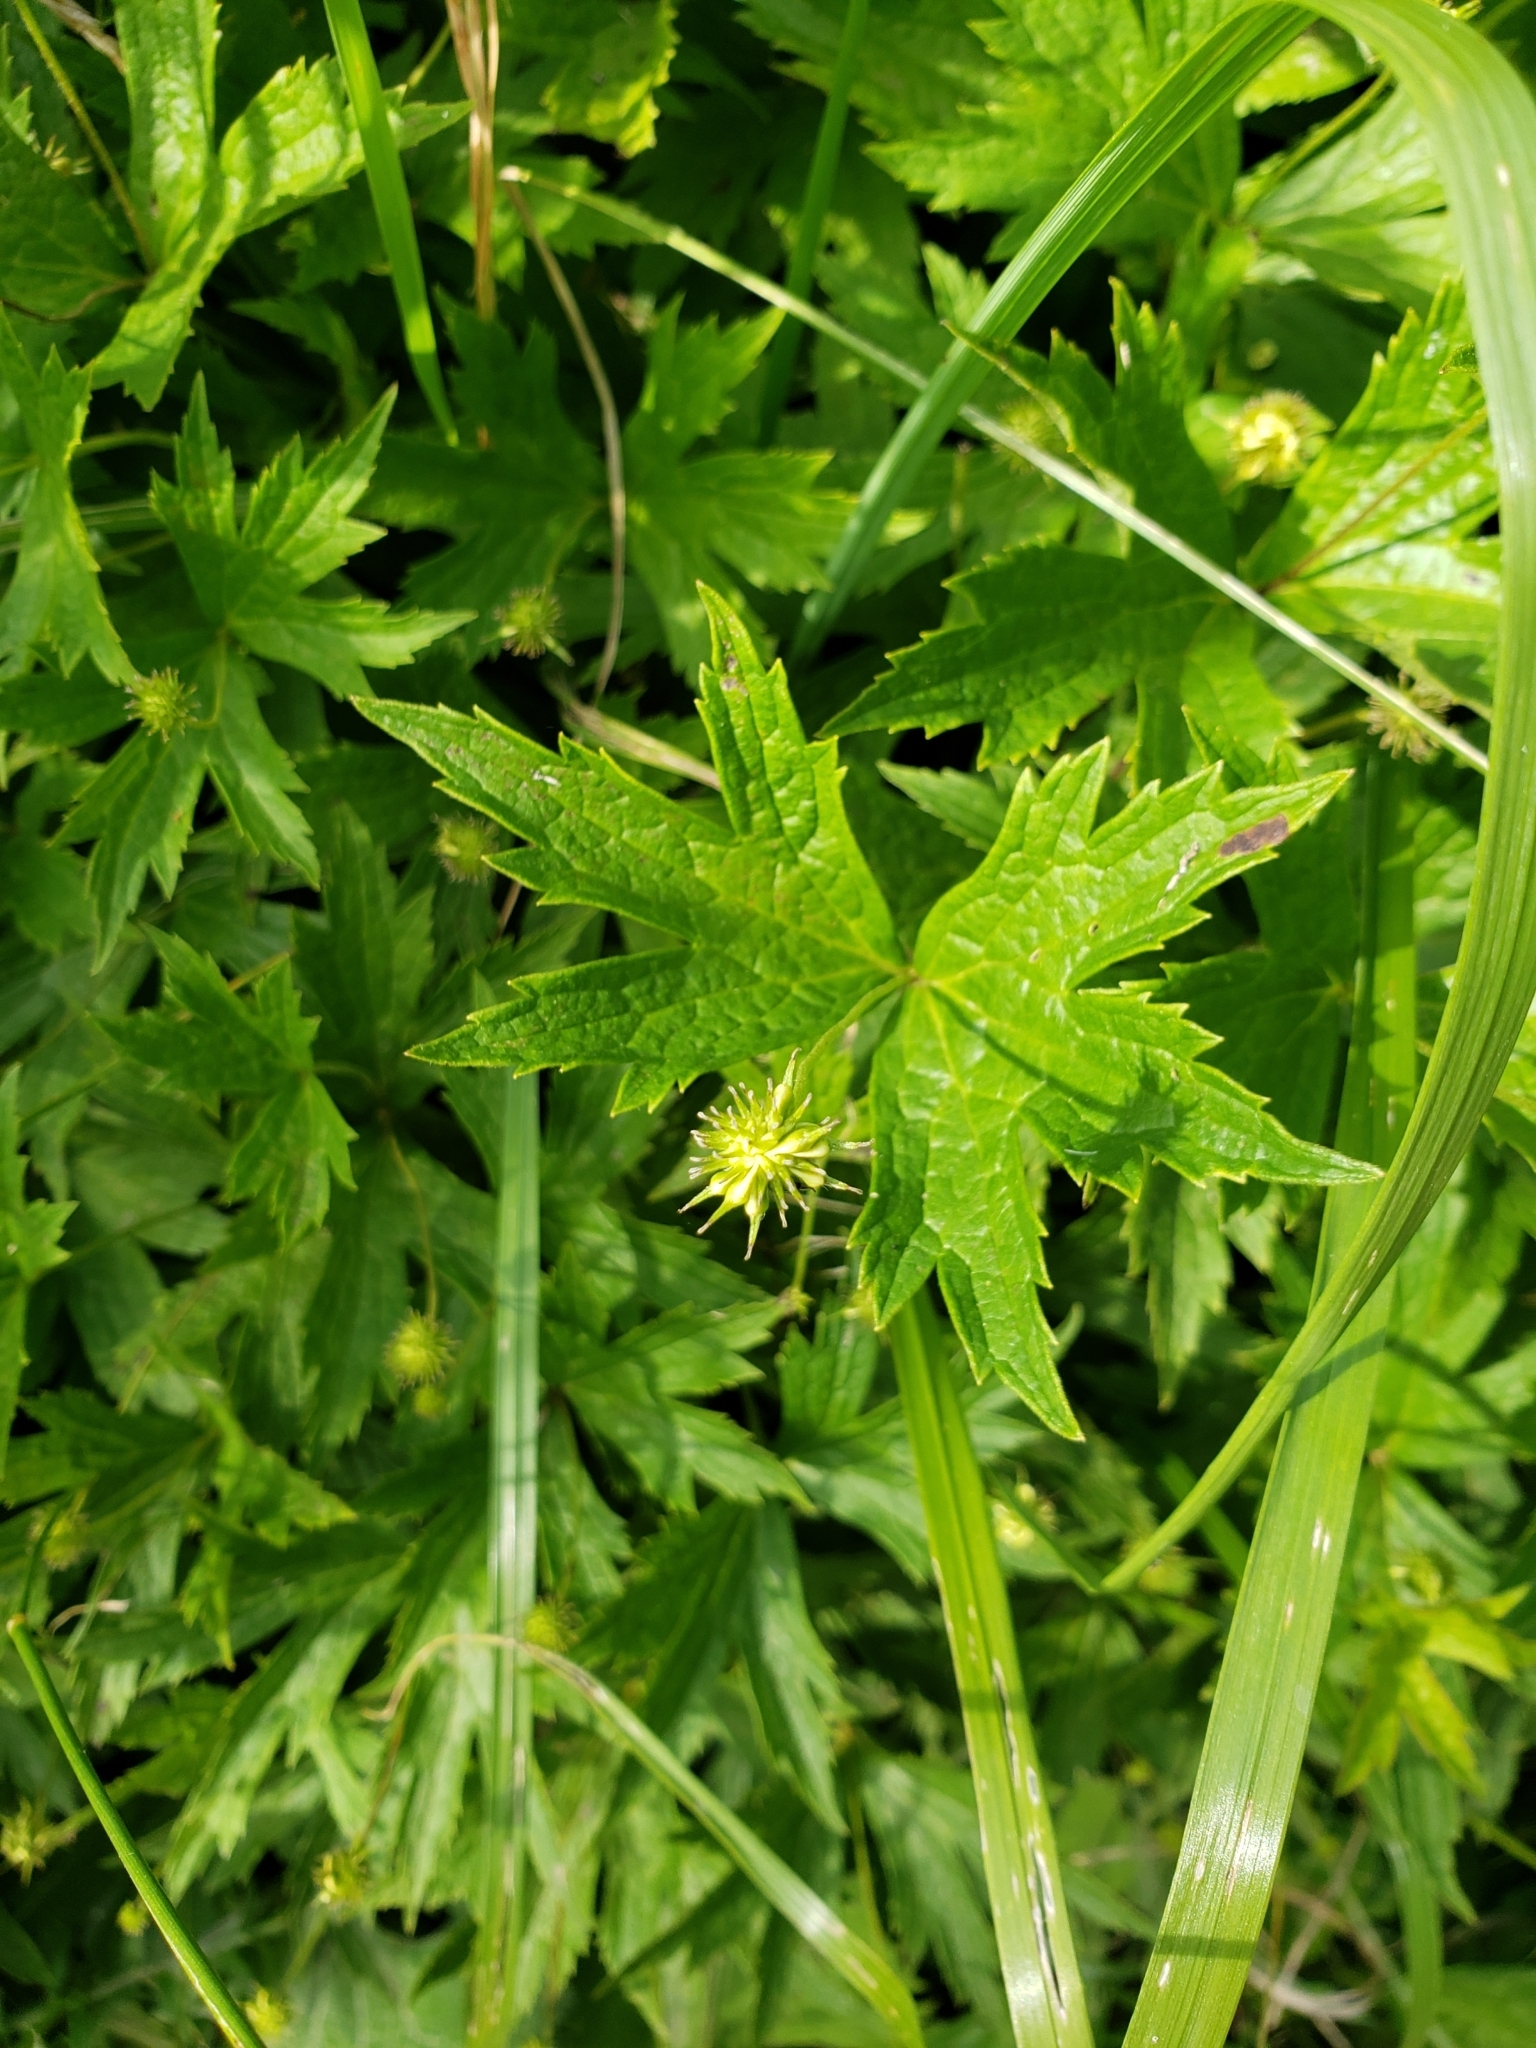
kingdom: Plantae
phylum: Tracheophyta
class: Magnoliopsida
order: Ranunculales
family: Ranunculaceae
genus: Anemonastrum
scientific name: Anemonastrum canadense
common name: Canada anemone
